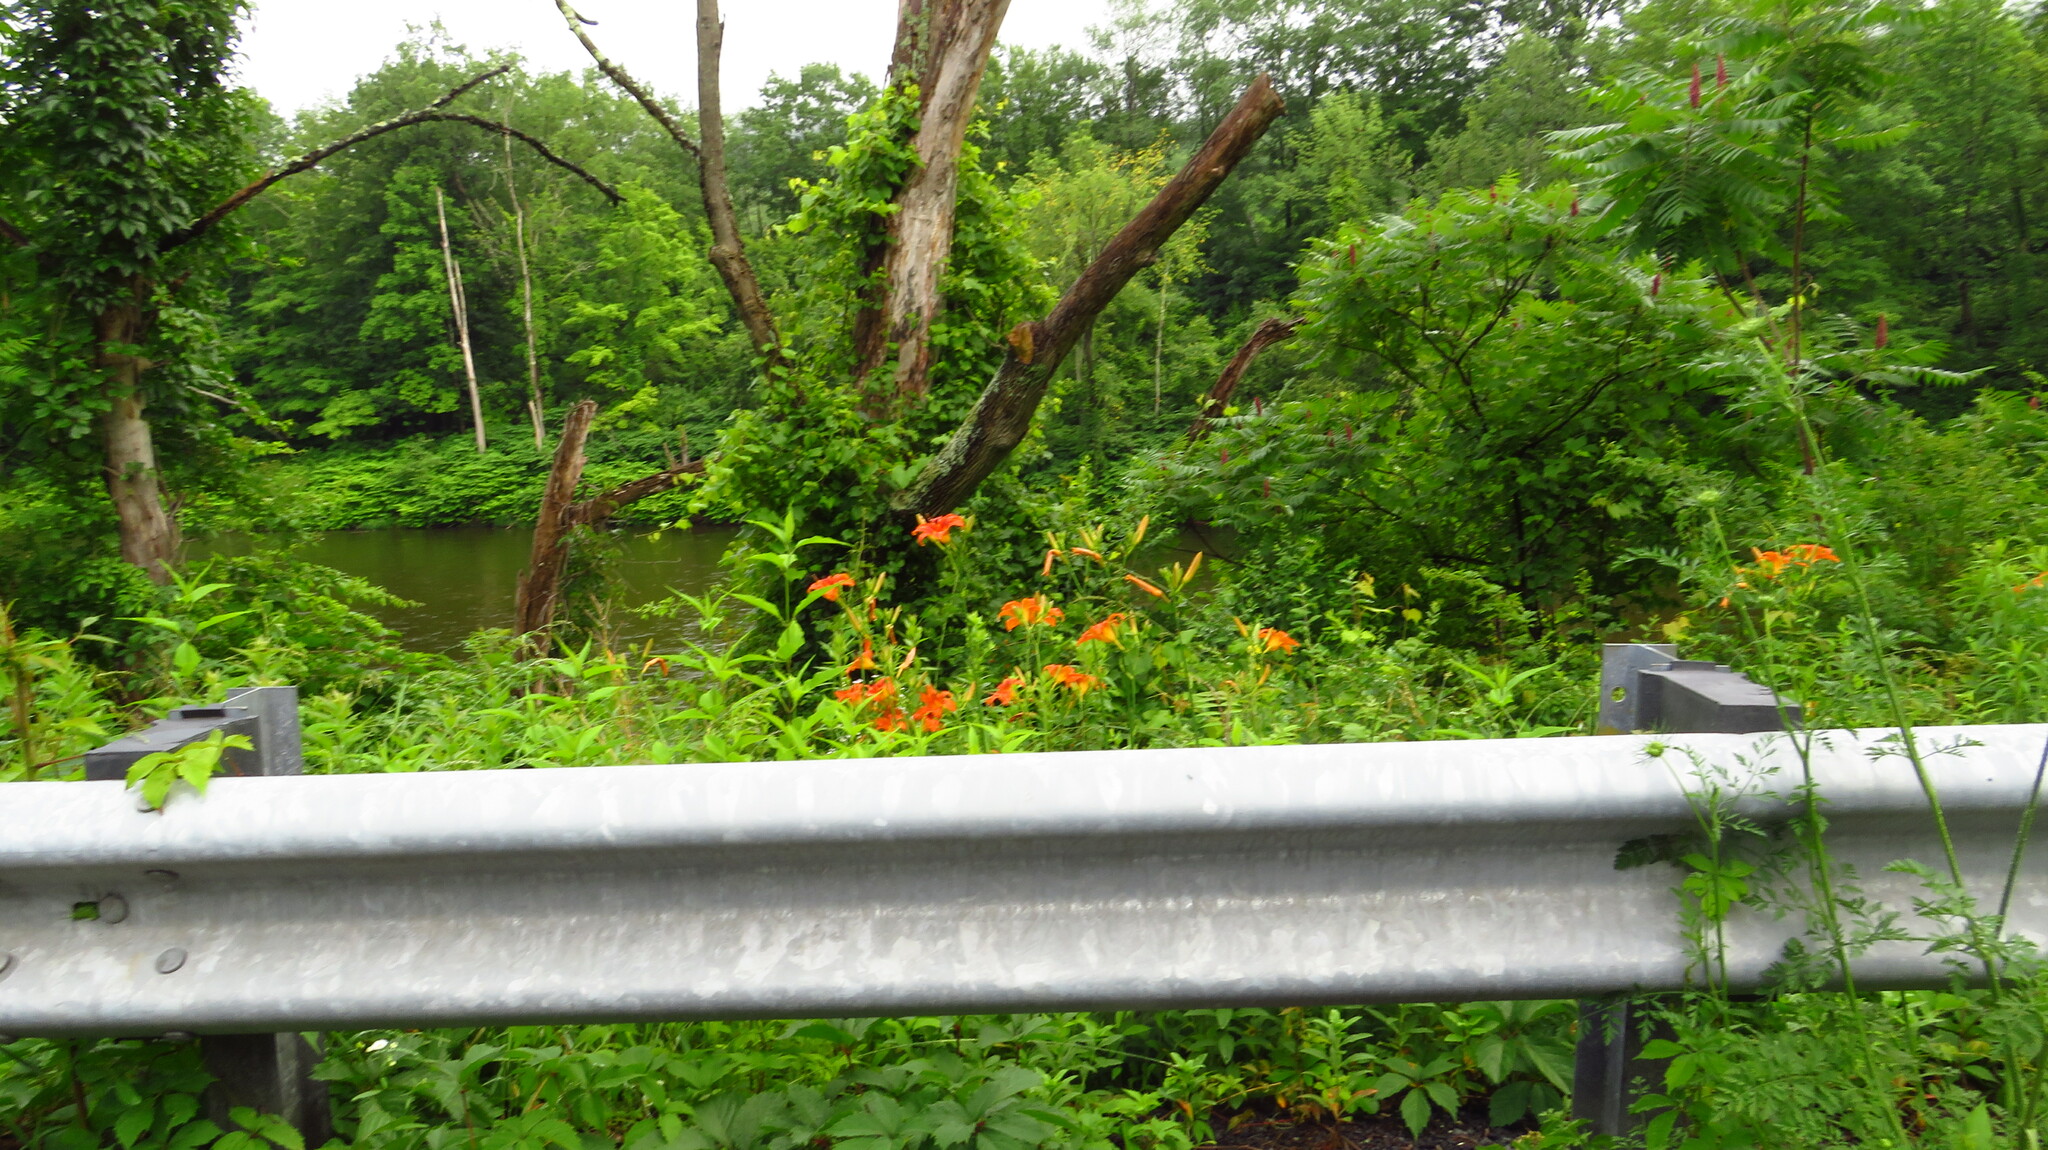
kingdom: Plantae
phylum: Tracheophyta
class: Liliopsida
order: Asparagales
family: Asphodelaceae
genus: Hemerocallis
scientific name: Hemerocallis fulva
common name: Orange day-lily
